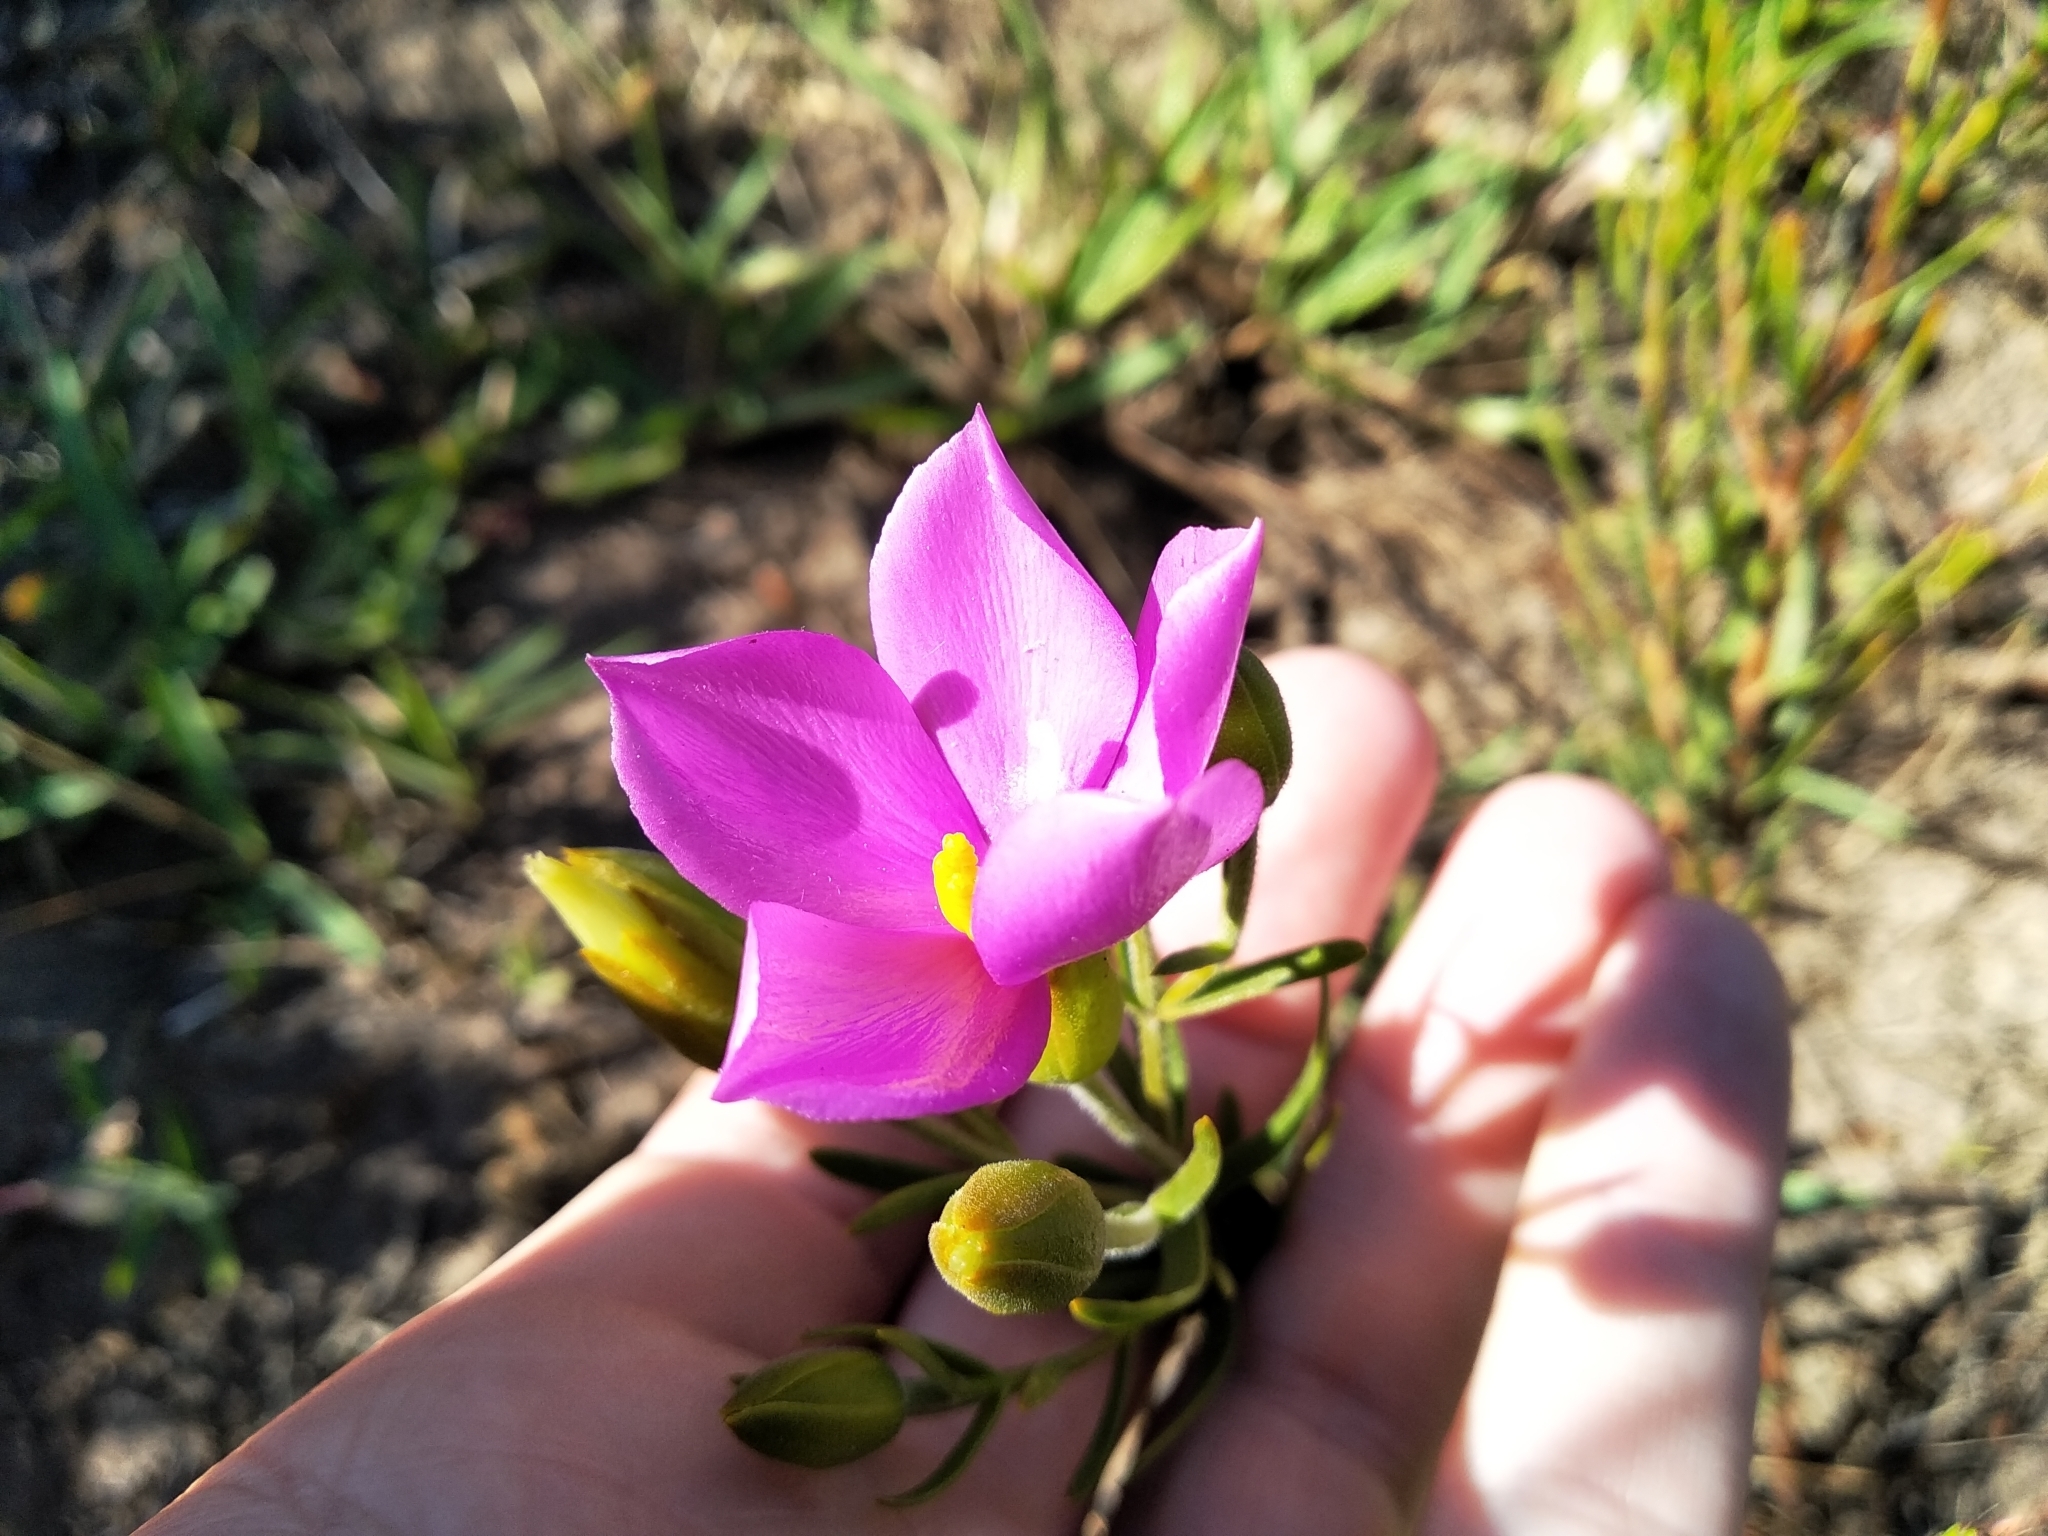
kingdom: Plantae
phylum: Tracheophyta
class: Magnoliopsida
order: Gentianales
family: Gentianaceae
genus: Orphium
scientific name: Orphium frutescens
